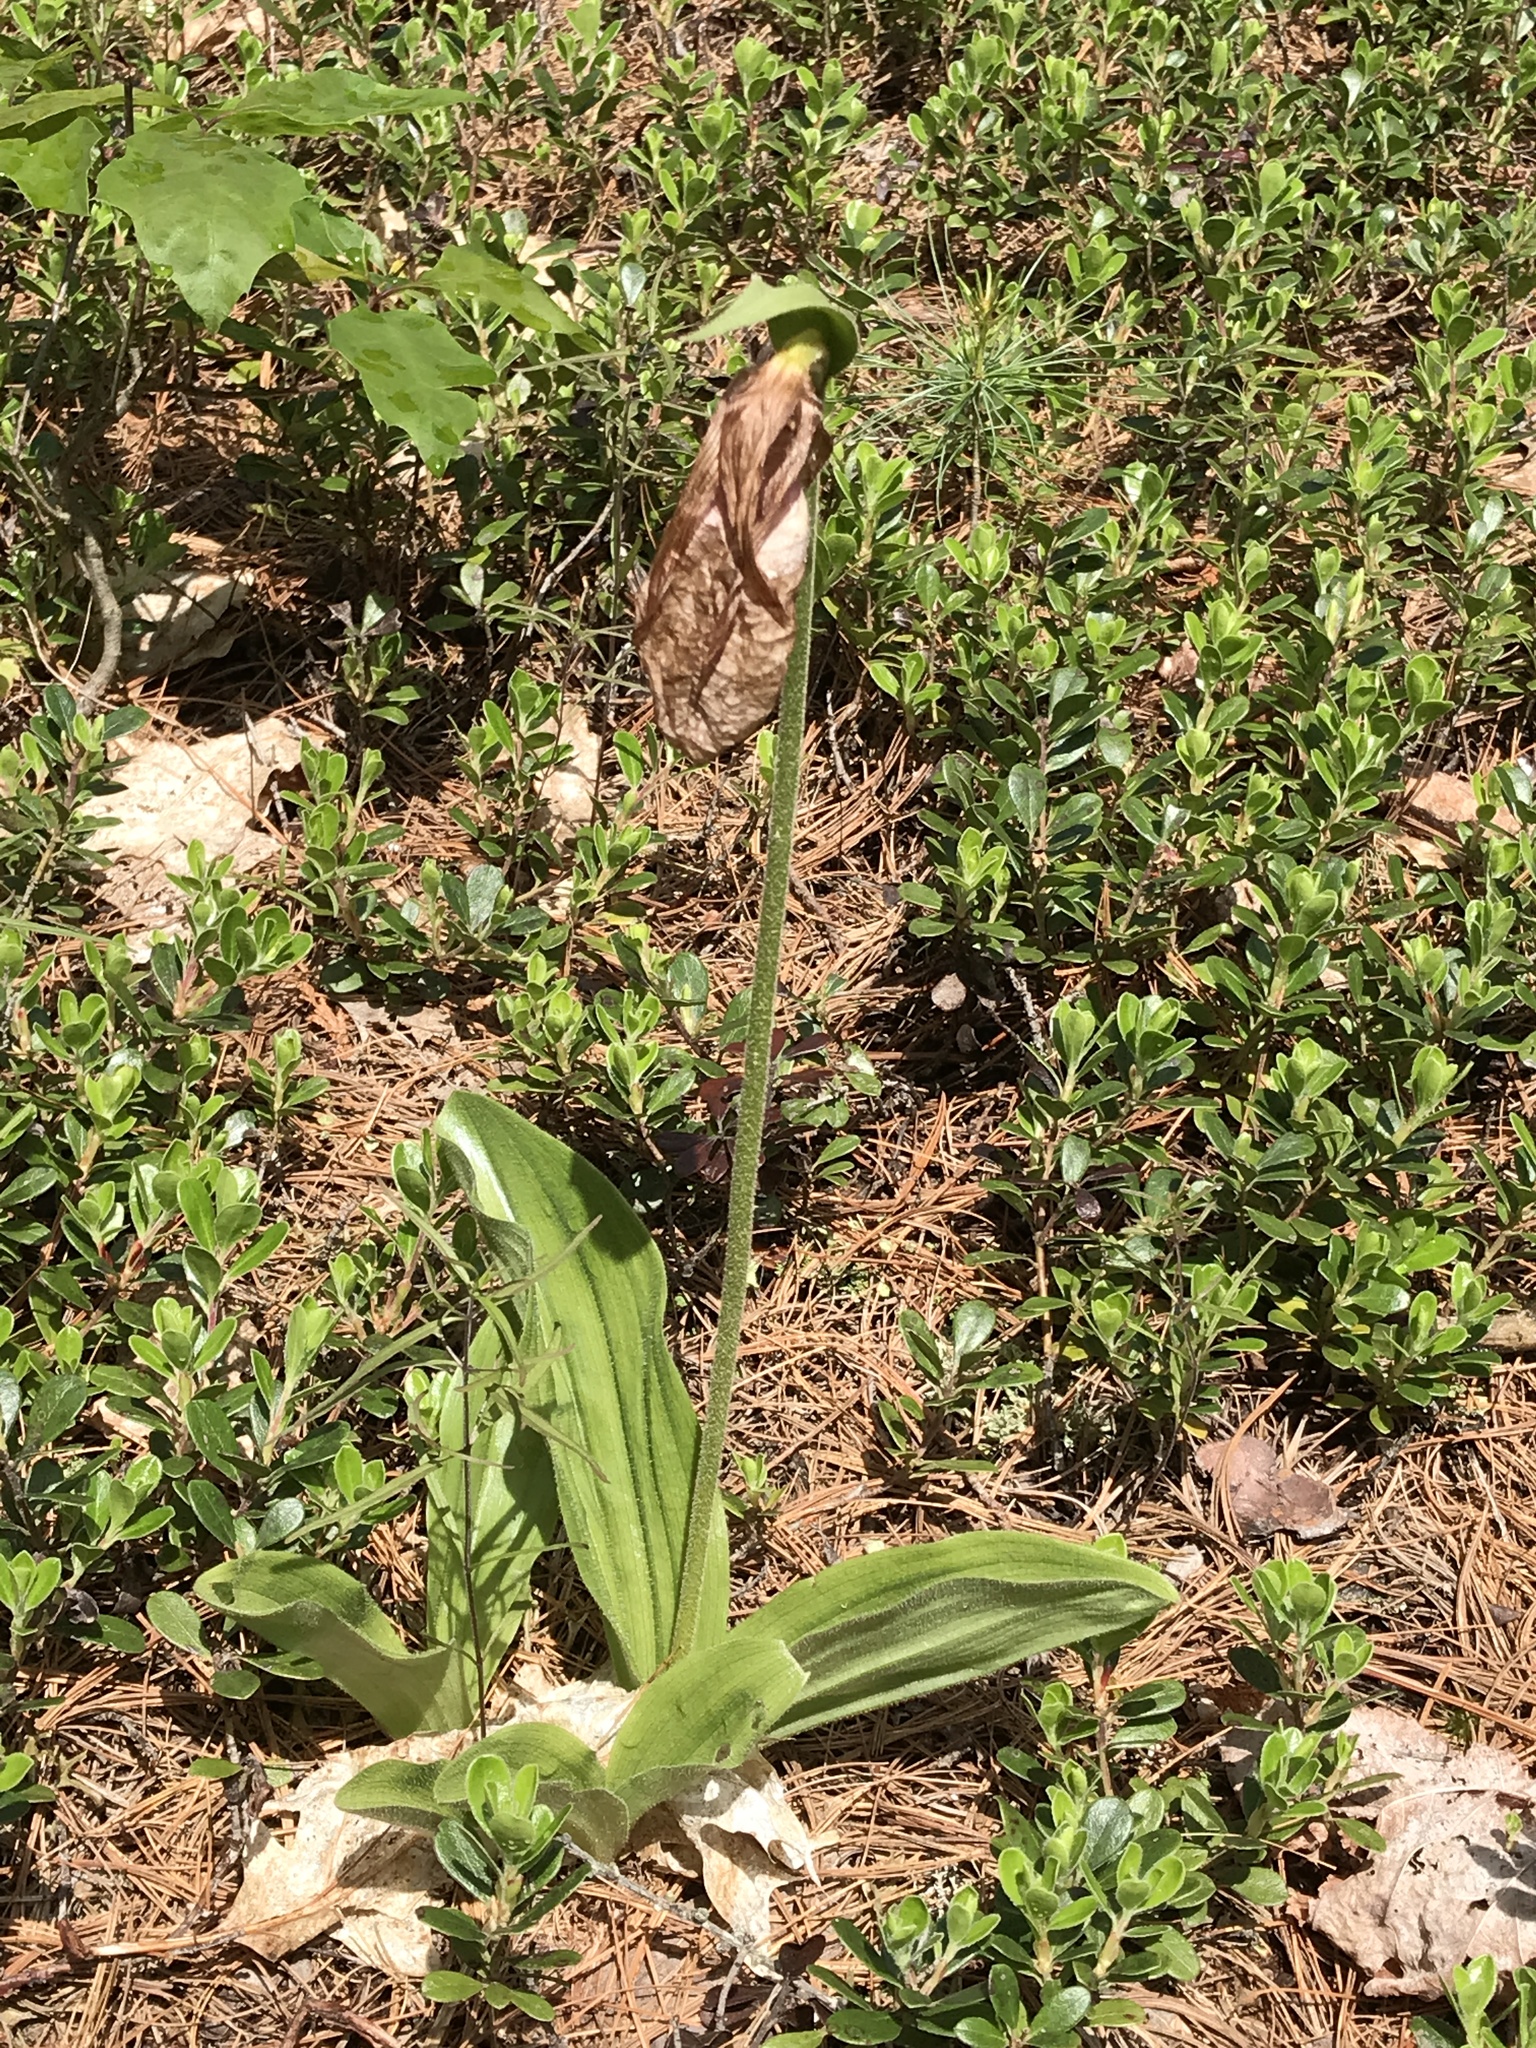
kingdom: Plantae
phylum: Tracheophyta
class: Liliopsida
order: Asparagales
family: Orchidaceae
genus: Cypripedium
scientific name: Cypripedium acaule
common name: Pink lady's-slipper
